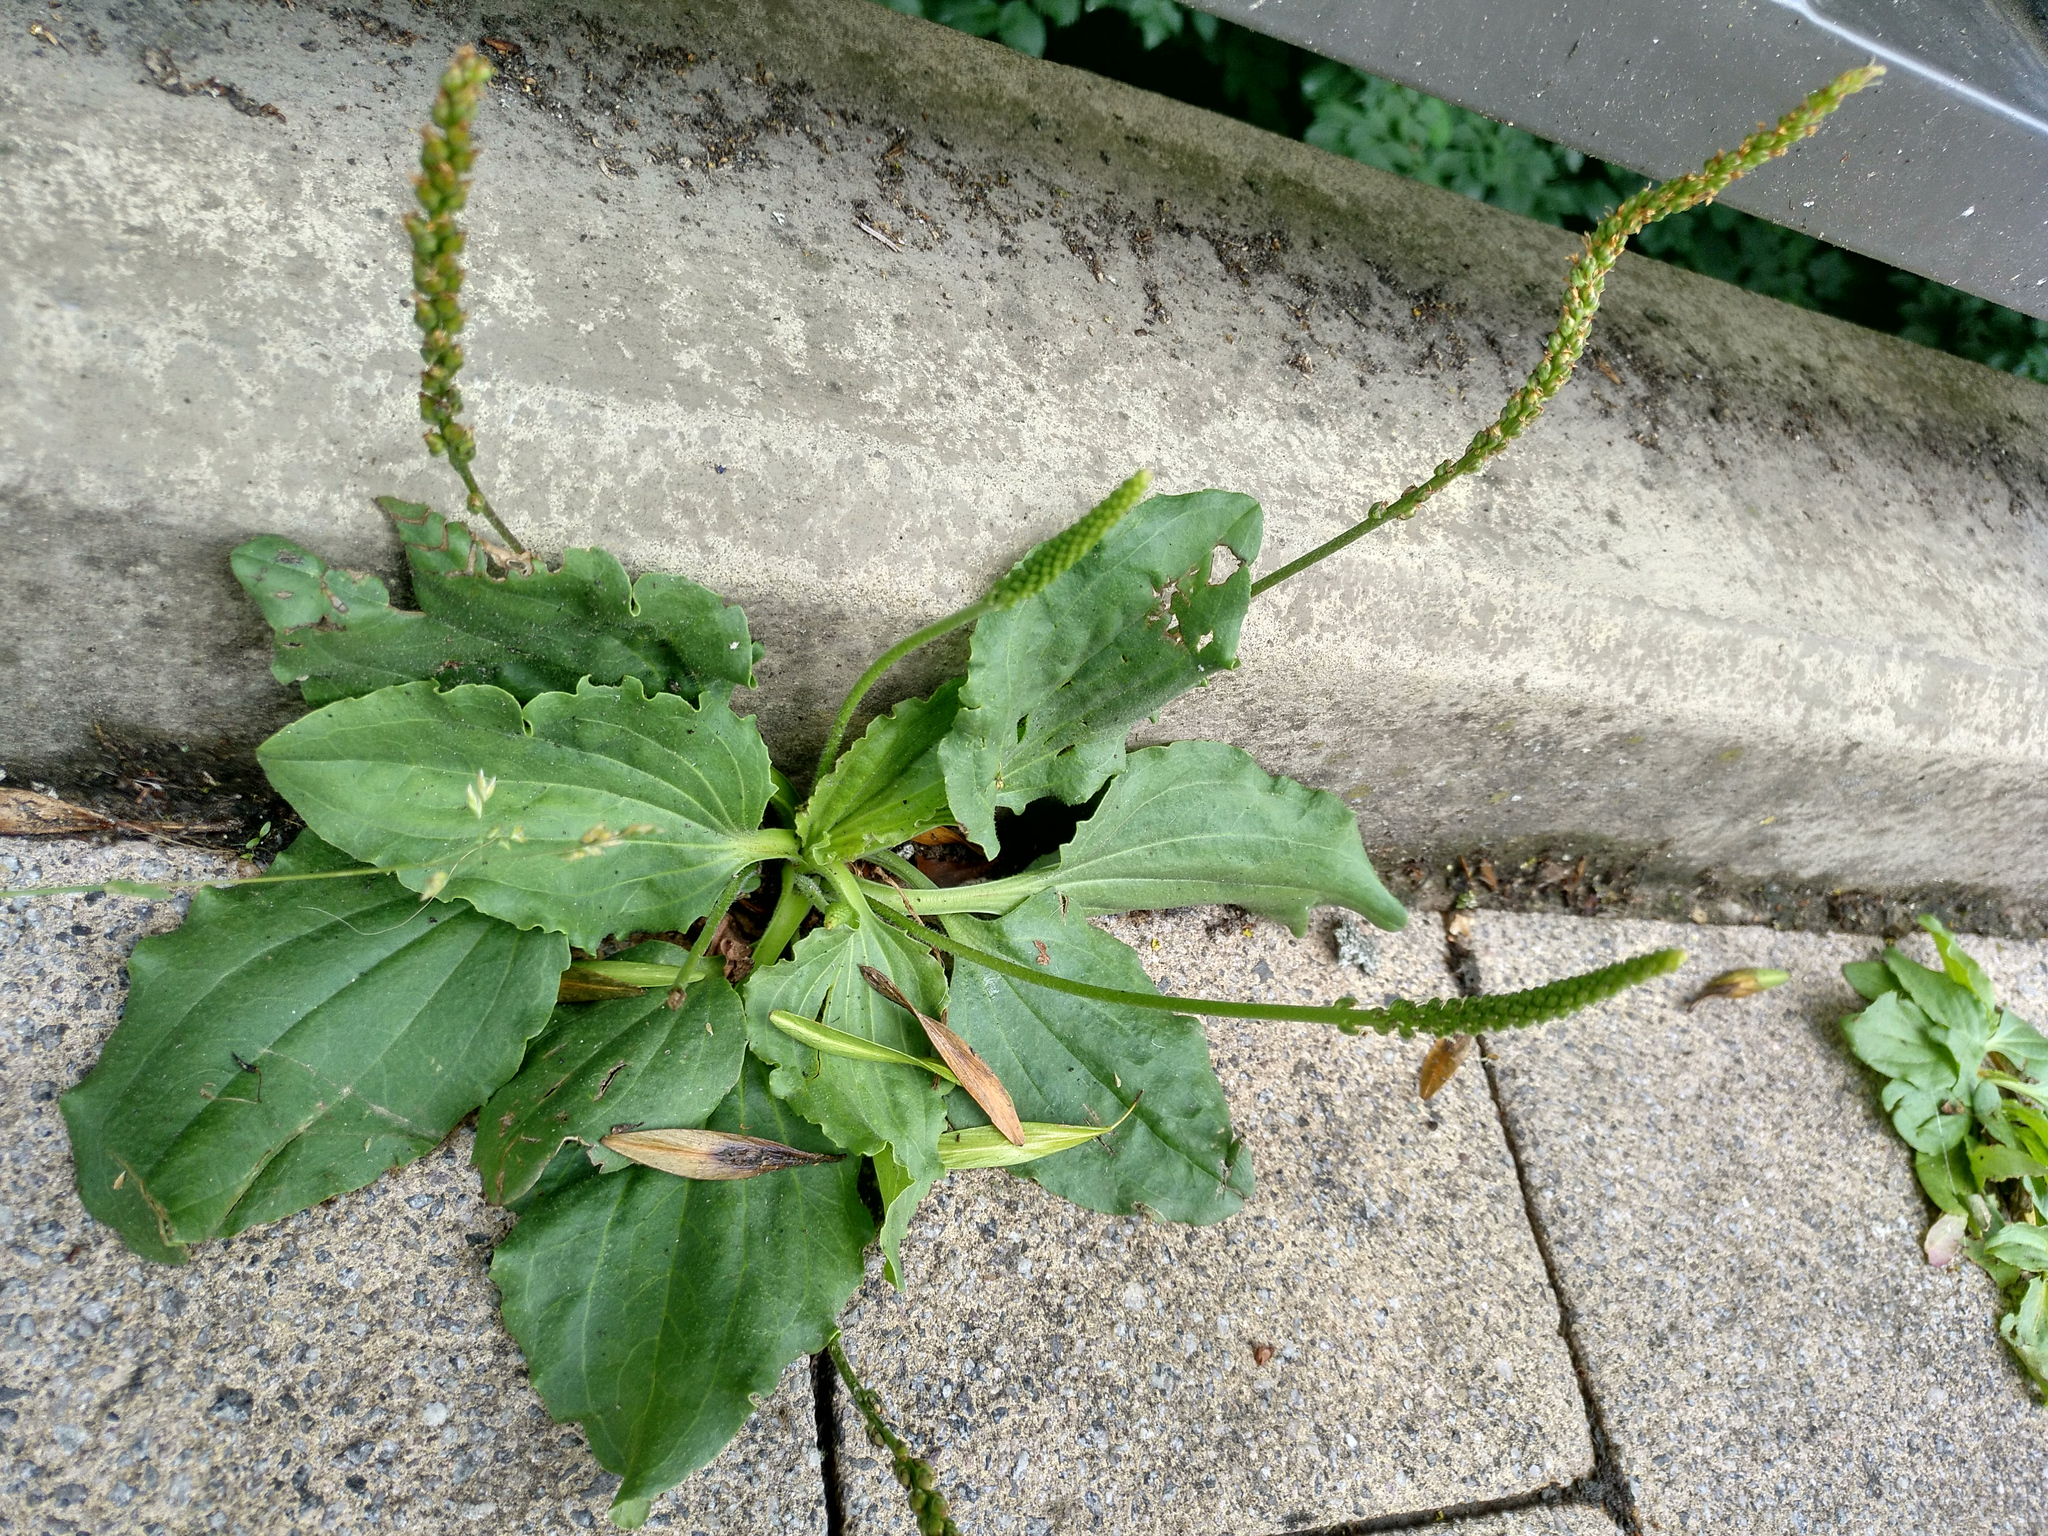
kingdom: Plantae
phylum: Tracheophyta
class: Magnoliopsida
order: Lamiales
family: Plantaginaceae
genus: Plantago
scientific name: Plantago major
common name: Common plantain
